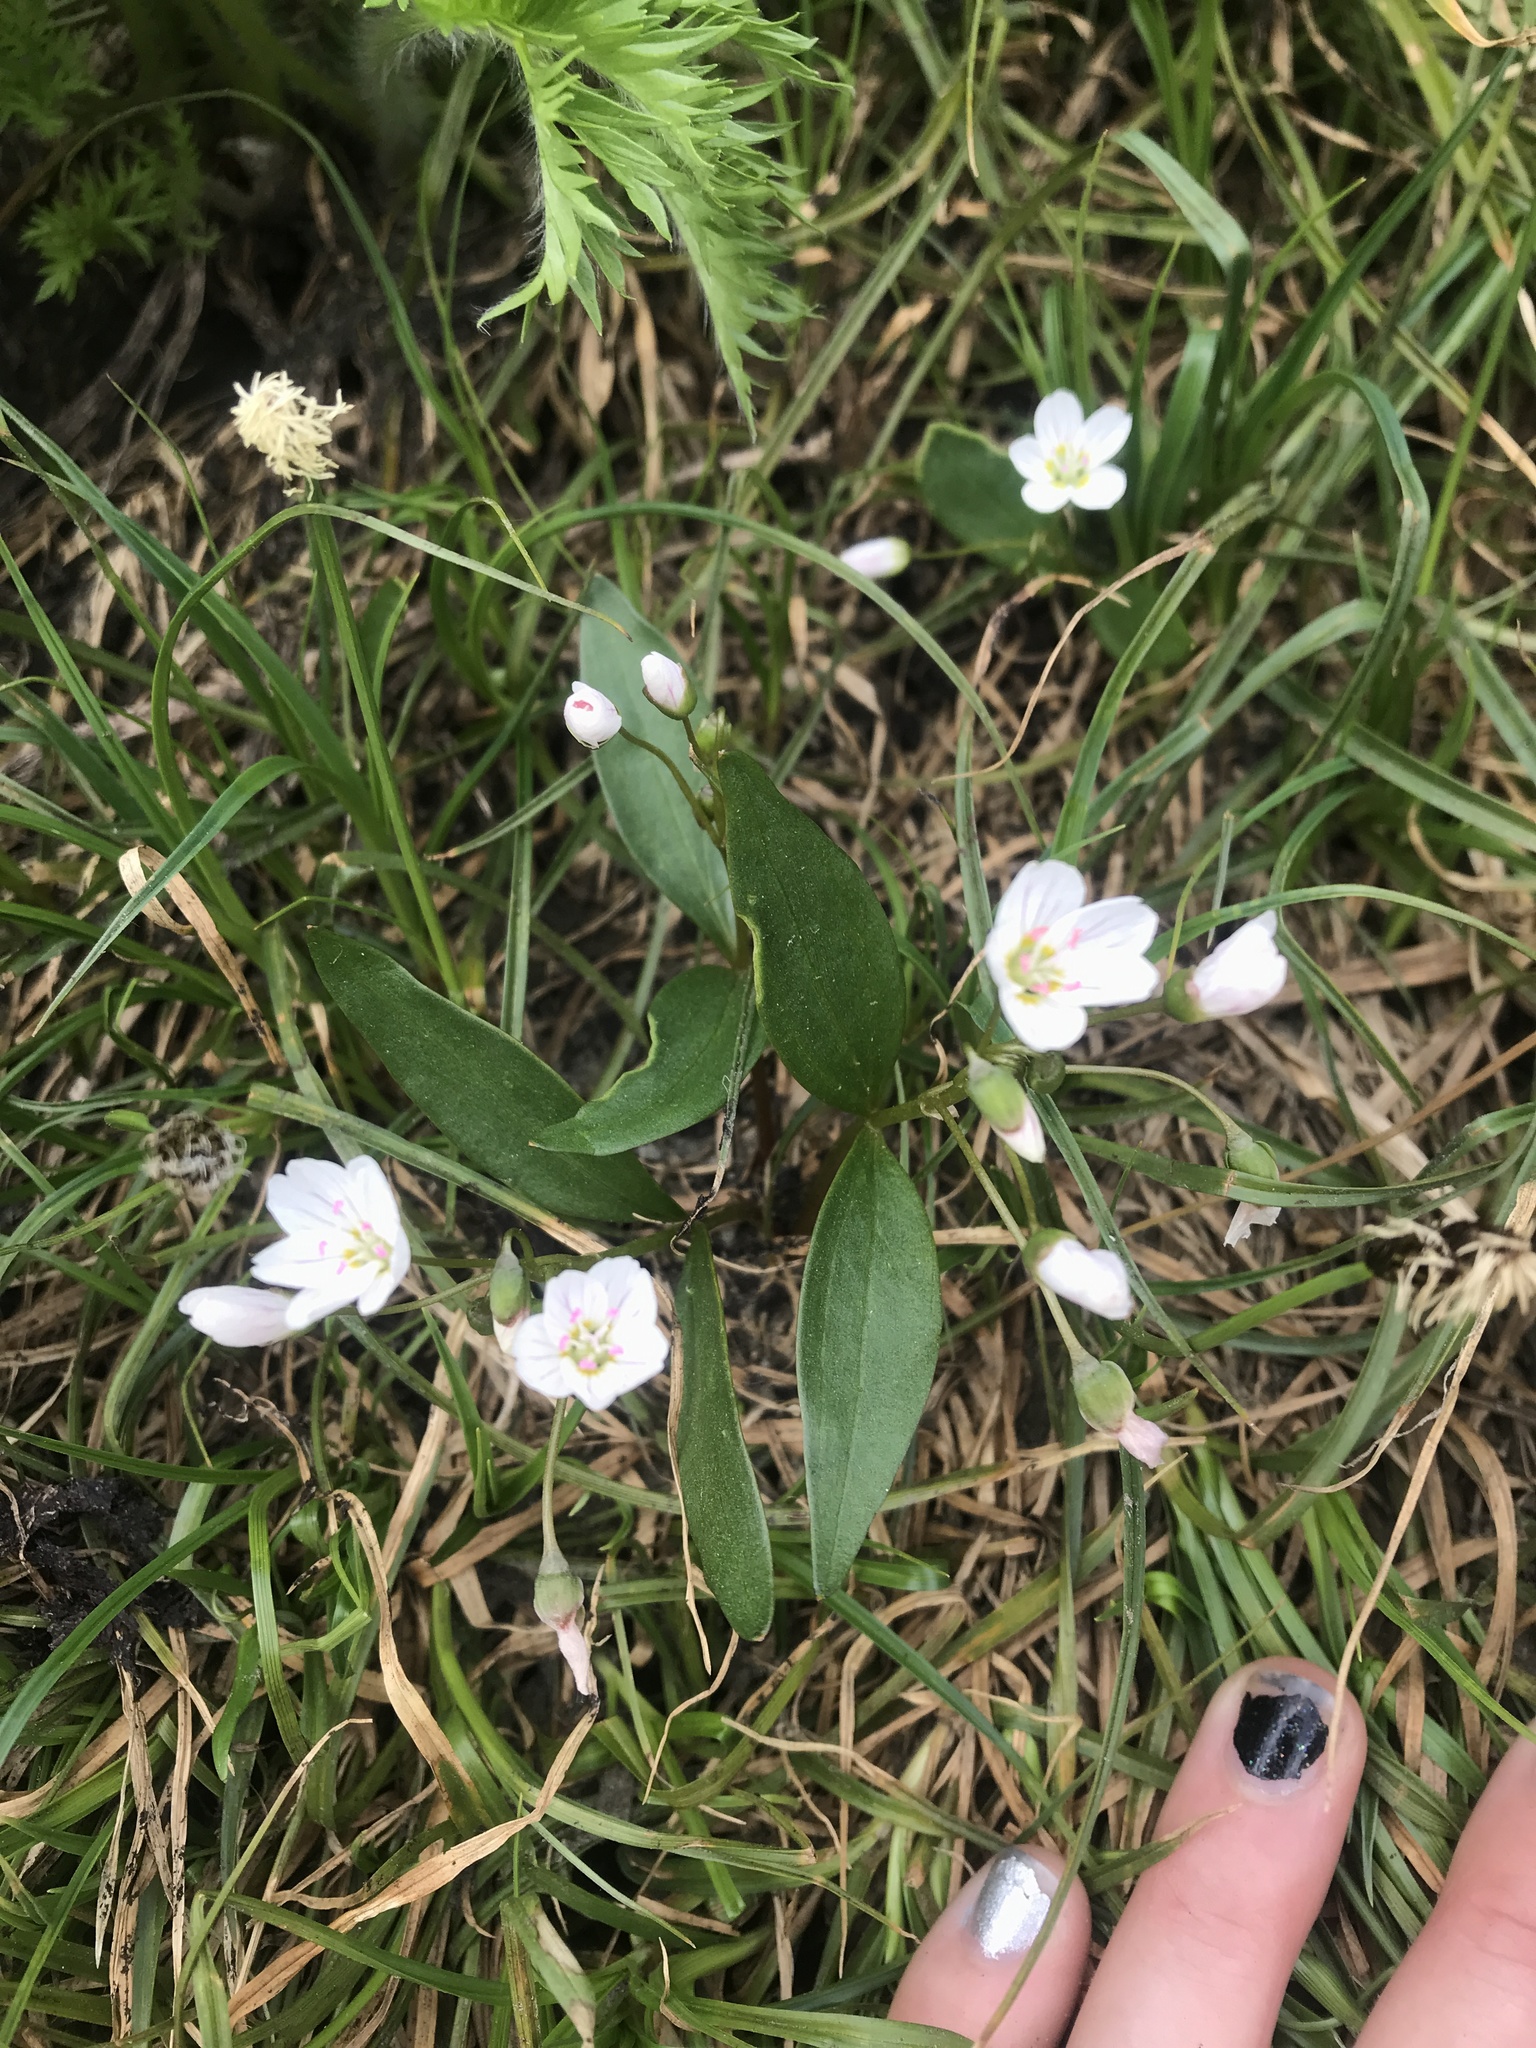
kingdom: Plantae
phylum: Tracheophyta
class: Magnoliopsida
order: Caryophyllales
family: Montiaceae
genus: Claytonia
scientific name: Claytonia lanceolata
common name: Western spring-beauty
